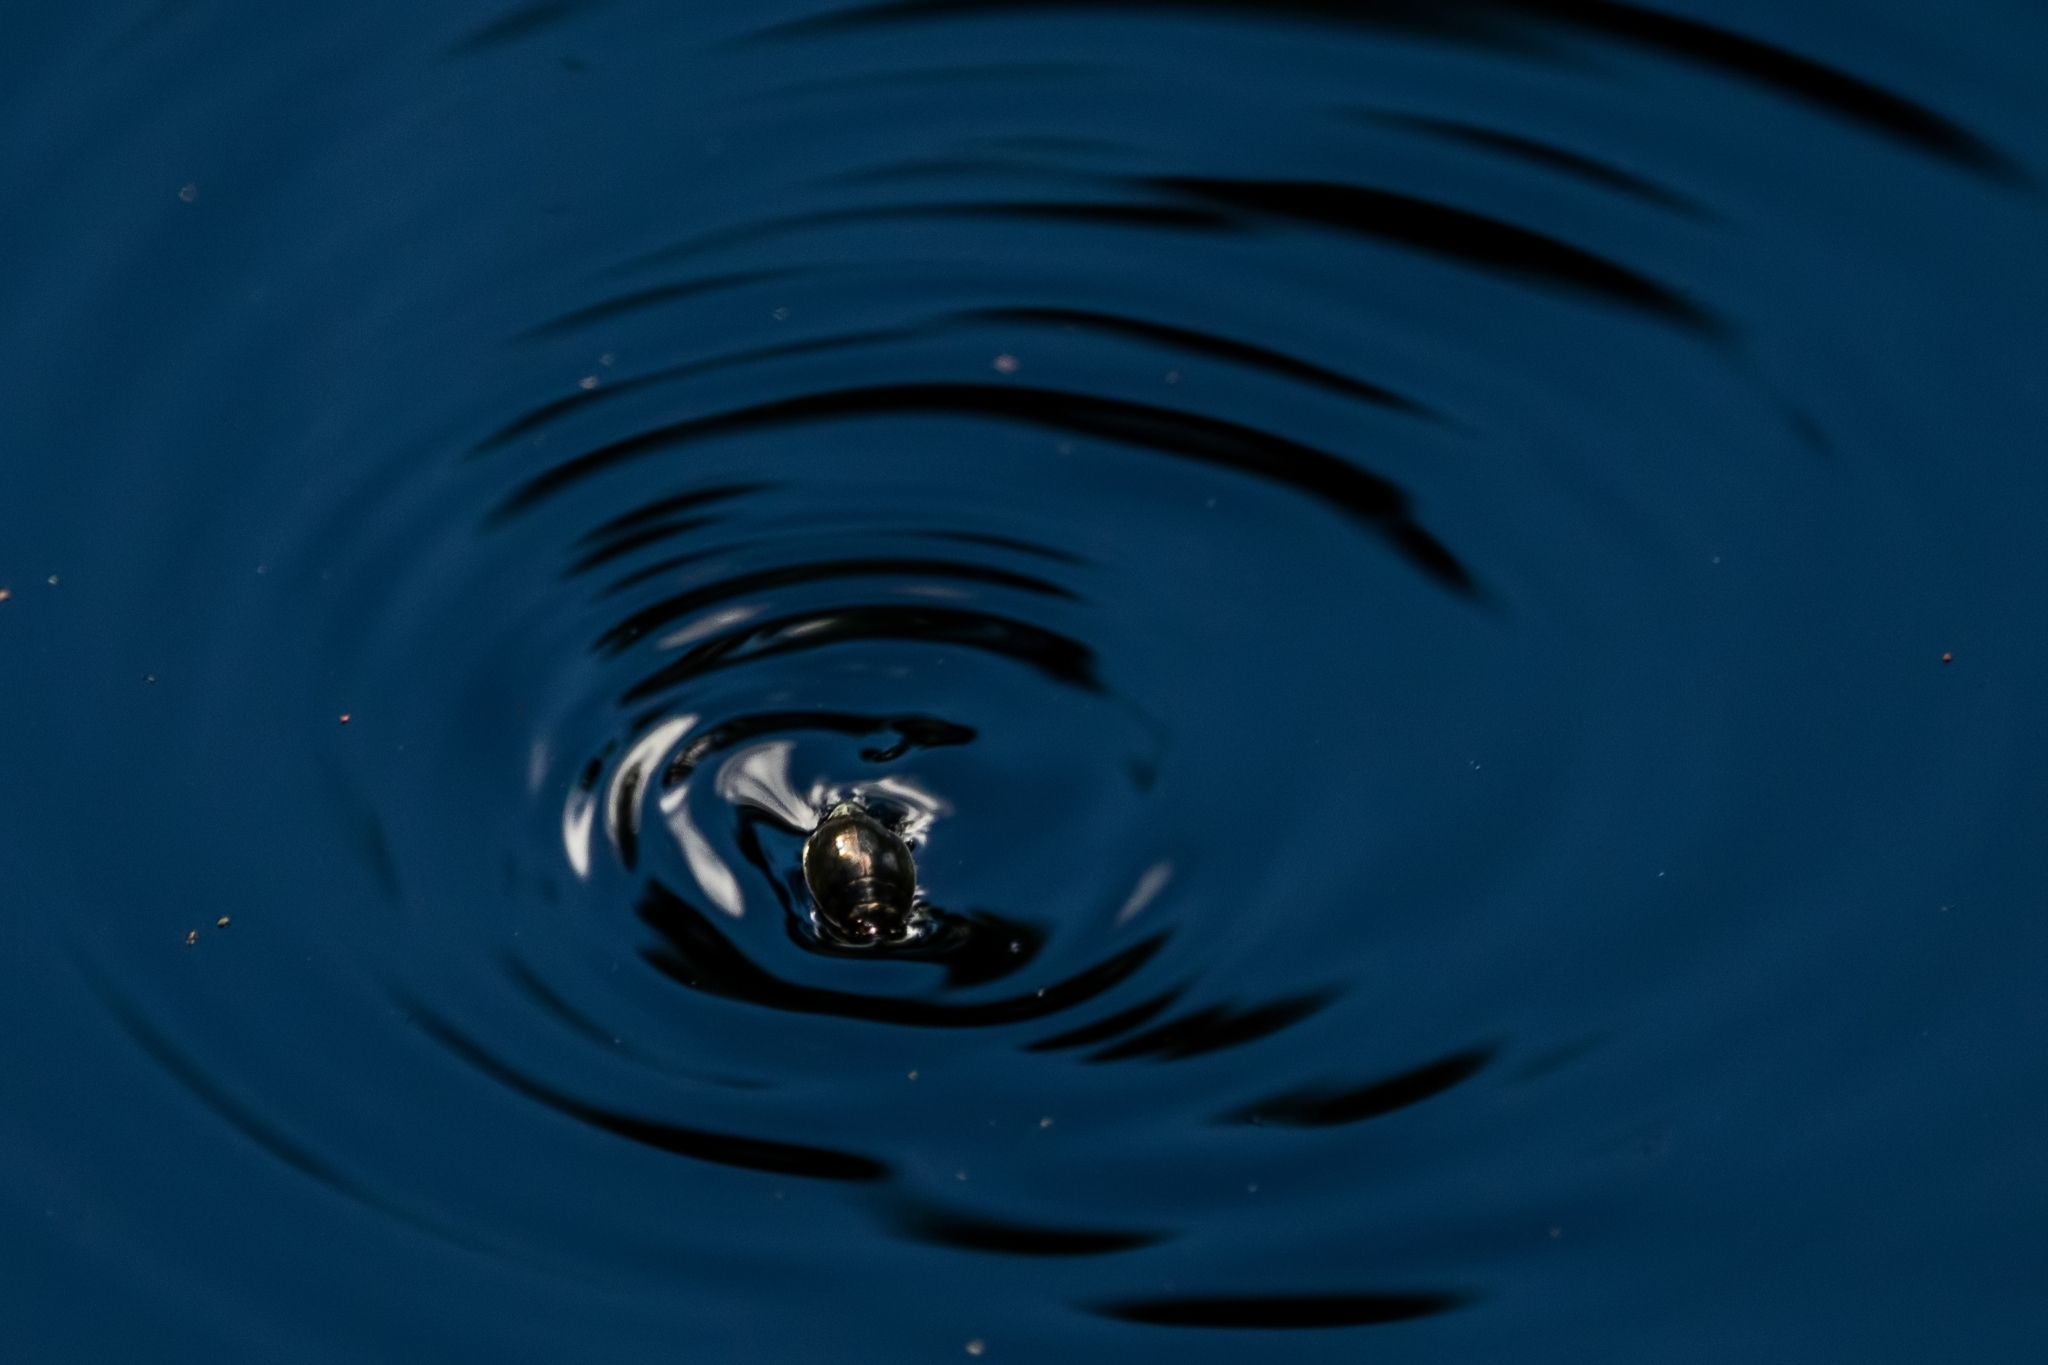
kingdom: Animalia
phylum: Arthropoda
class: Insecta
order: Coleoptera
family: Gyrinidae
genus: Dineutus
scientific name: Dineutus
